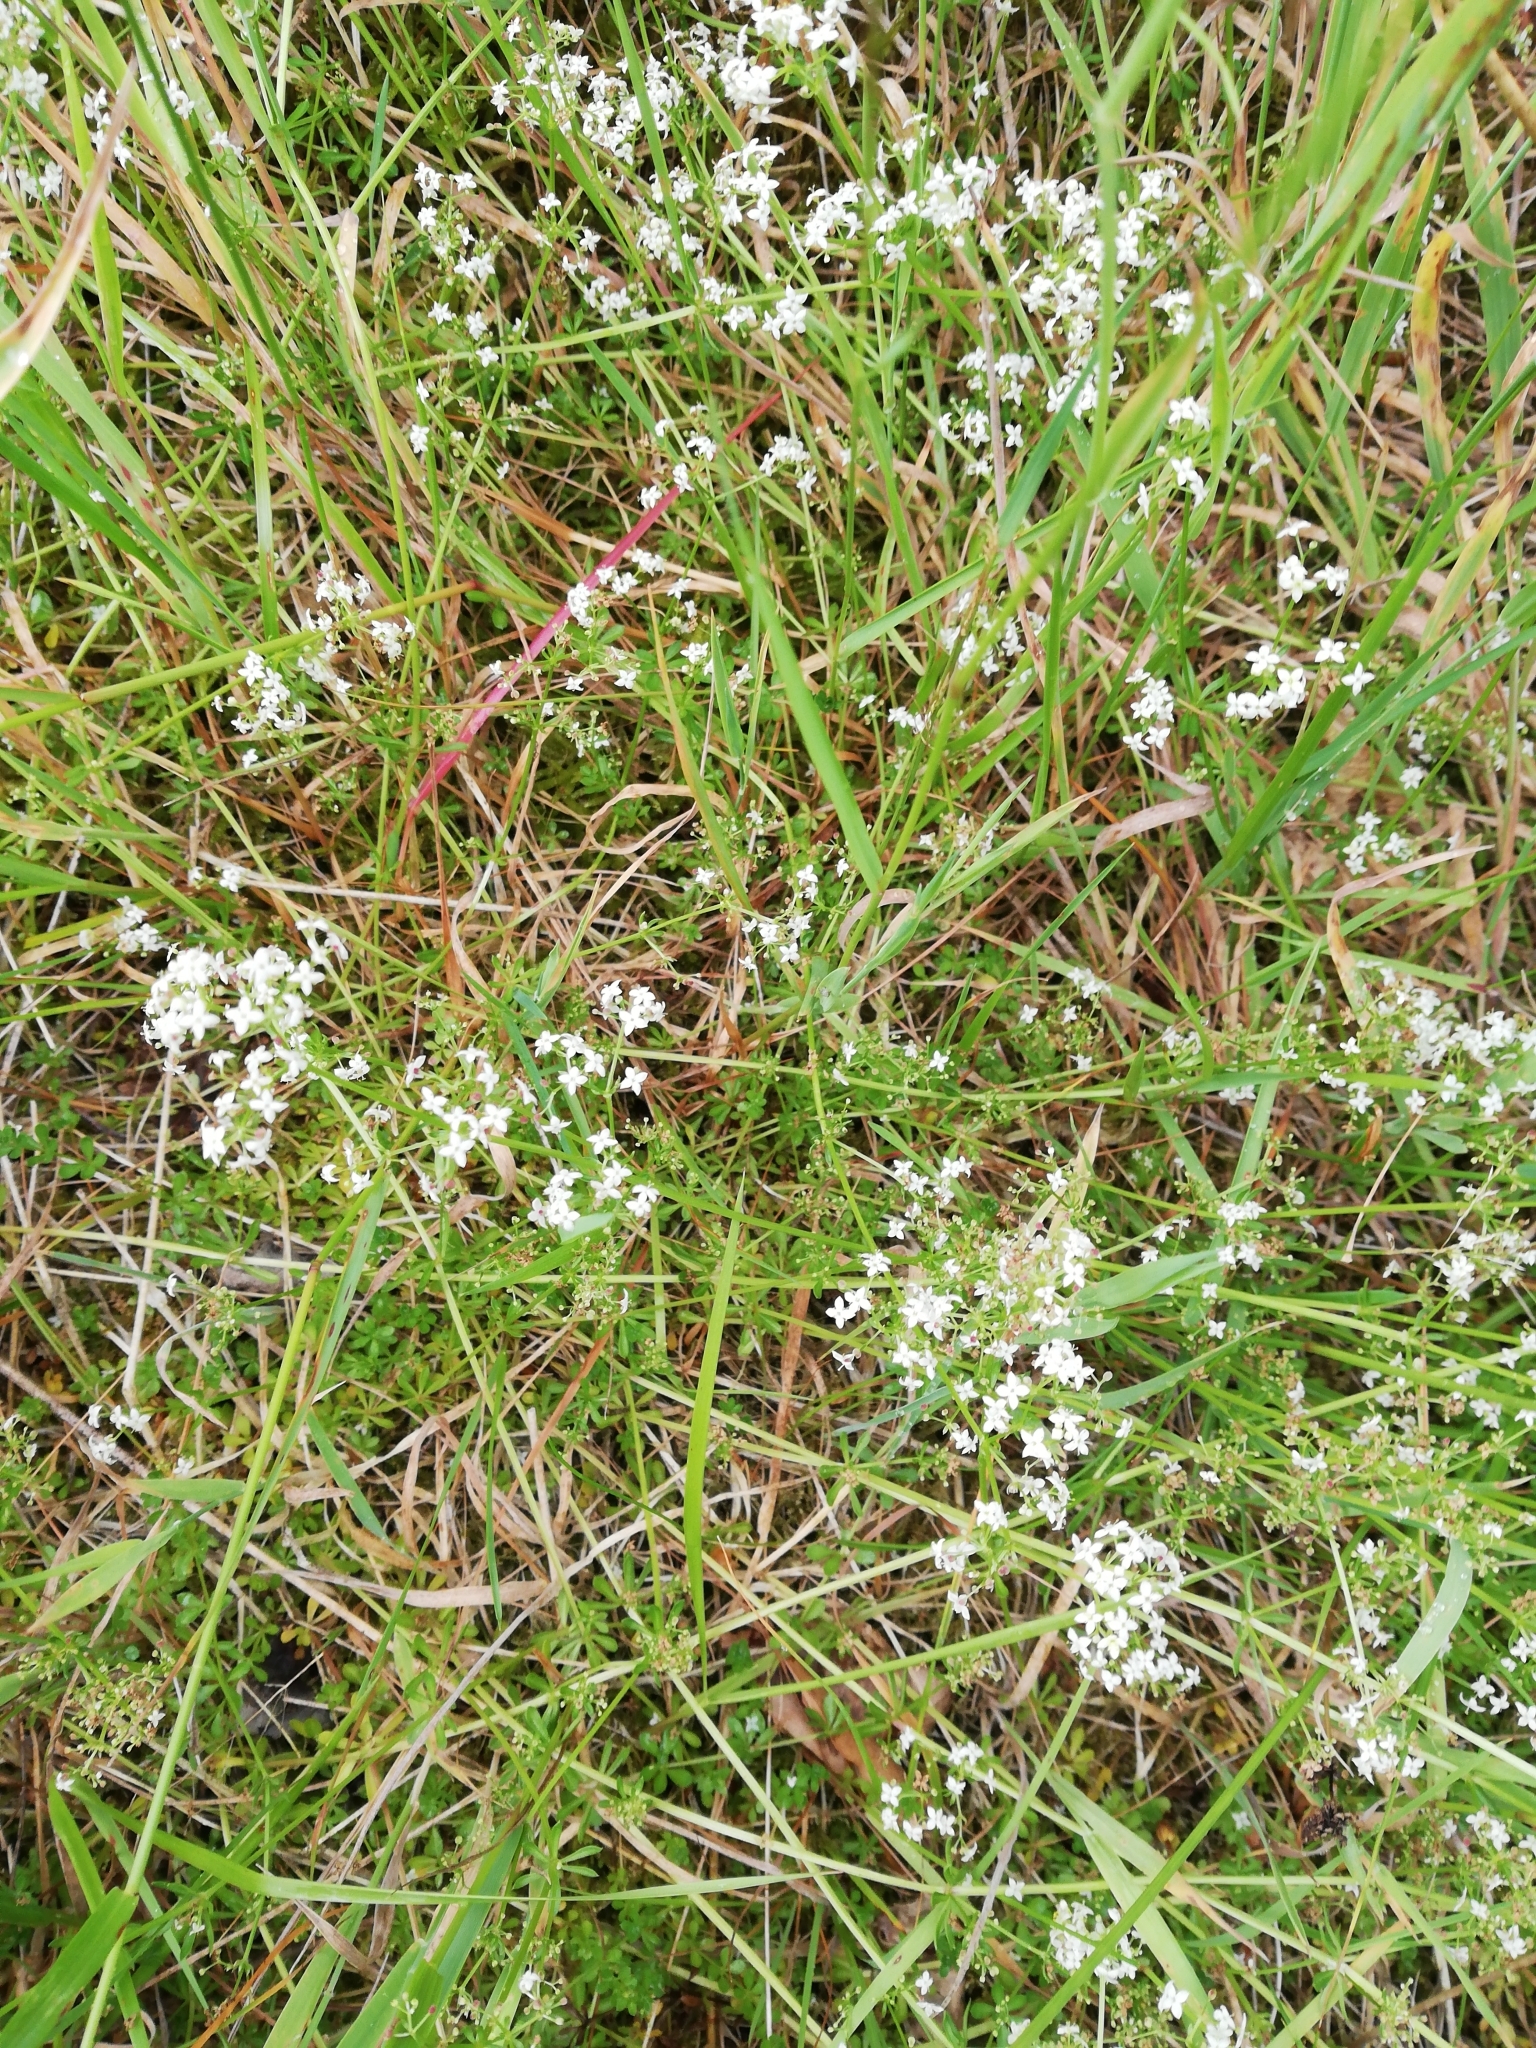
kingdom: Plantae
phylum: Tracheophyta
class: Magnoliopsida
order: Gentianales
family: Rubiaceae
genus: Galium
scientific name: Galium saxatile
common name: Heath bedstraw
